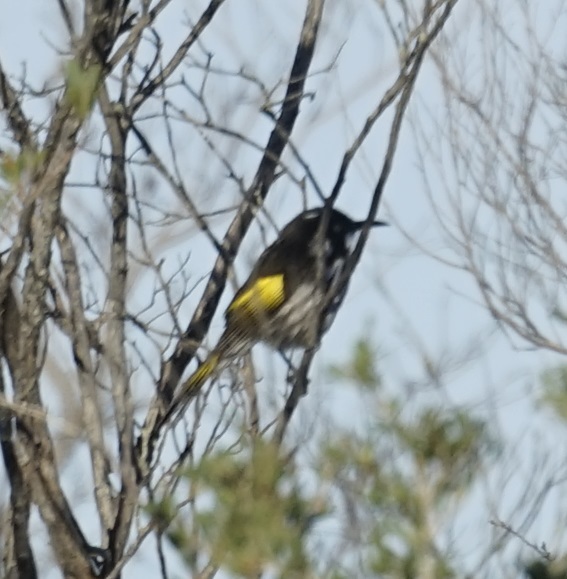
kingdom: Animalia
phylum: Chordata
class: Aves
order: Passeriformes
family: Meliphagidae
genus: Phylidonyris
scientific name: Phylidonyris novaehollandiae
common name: New holland honeyeater
